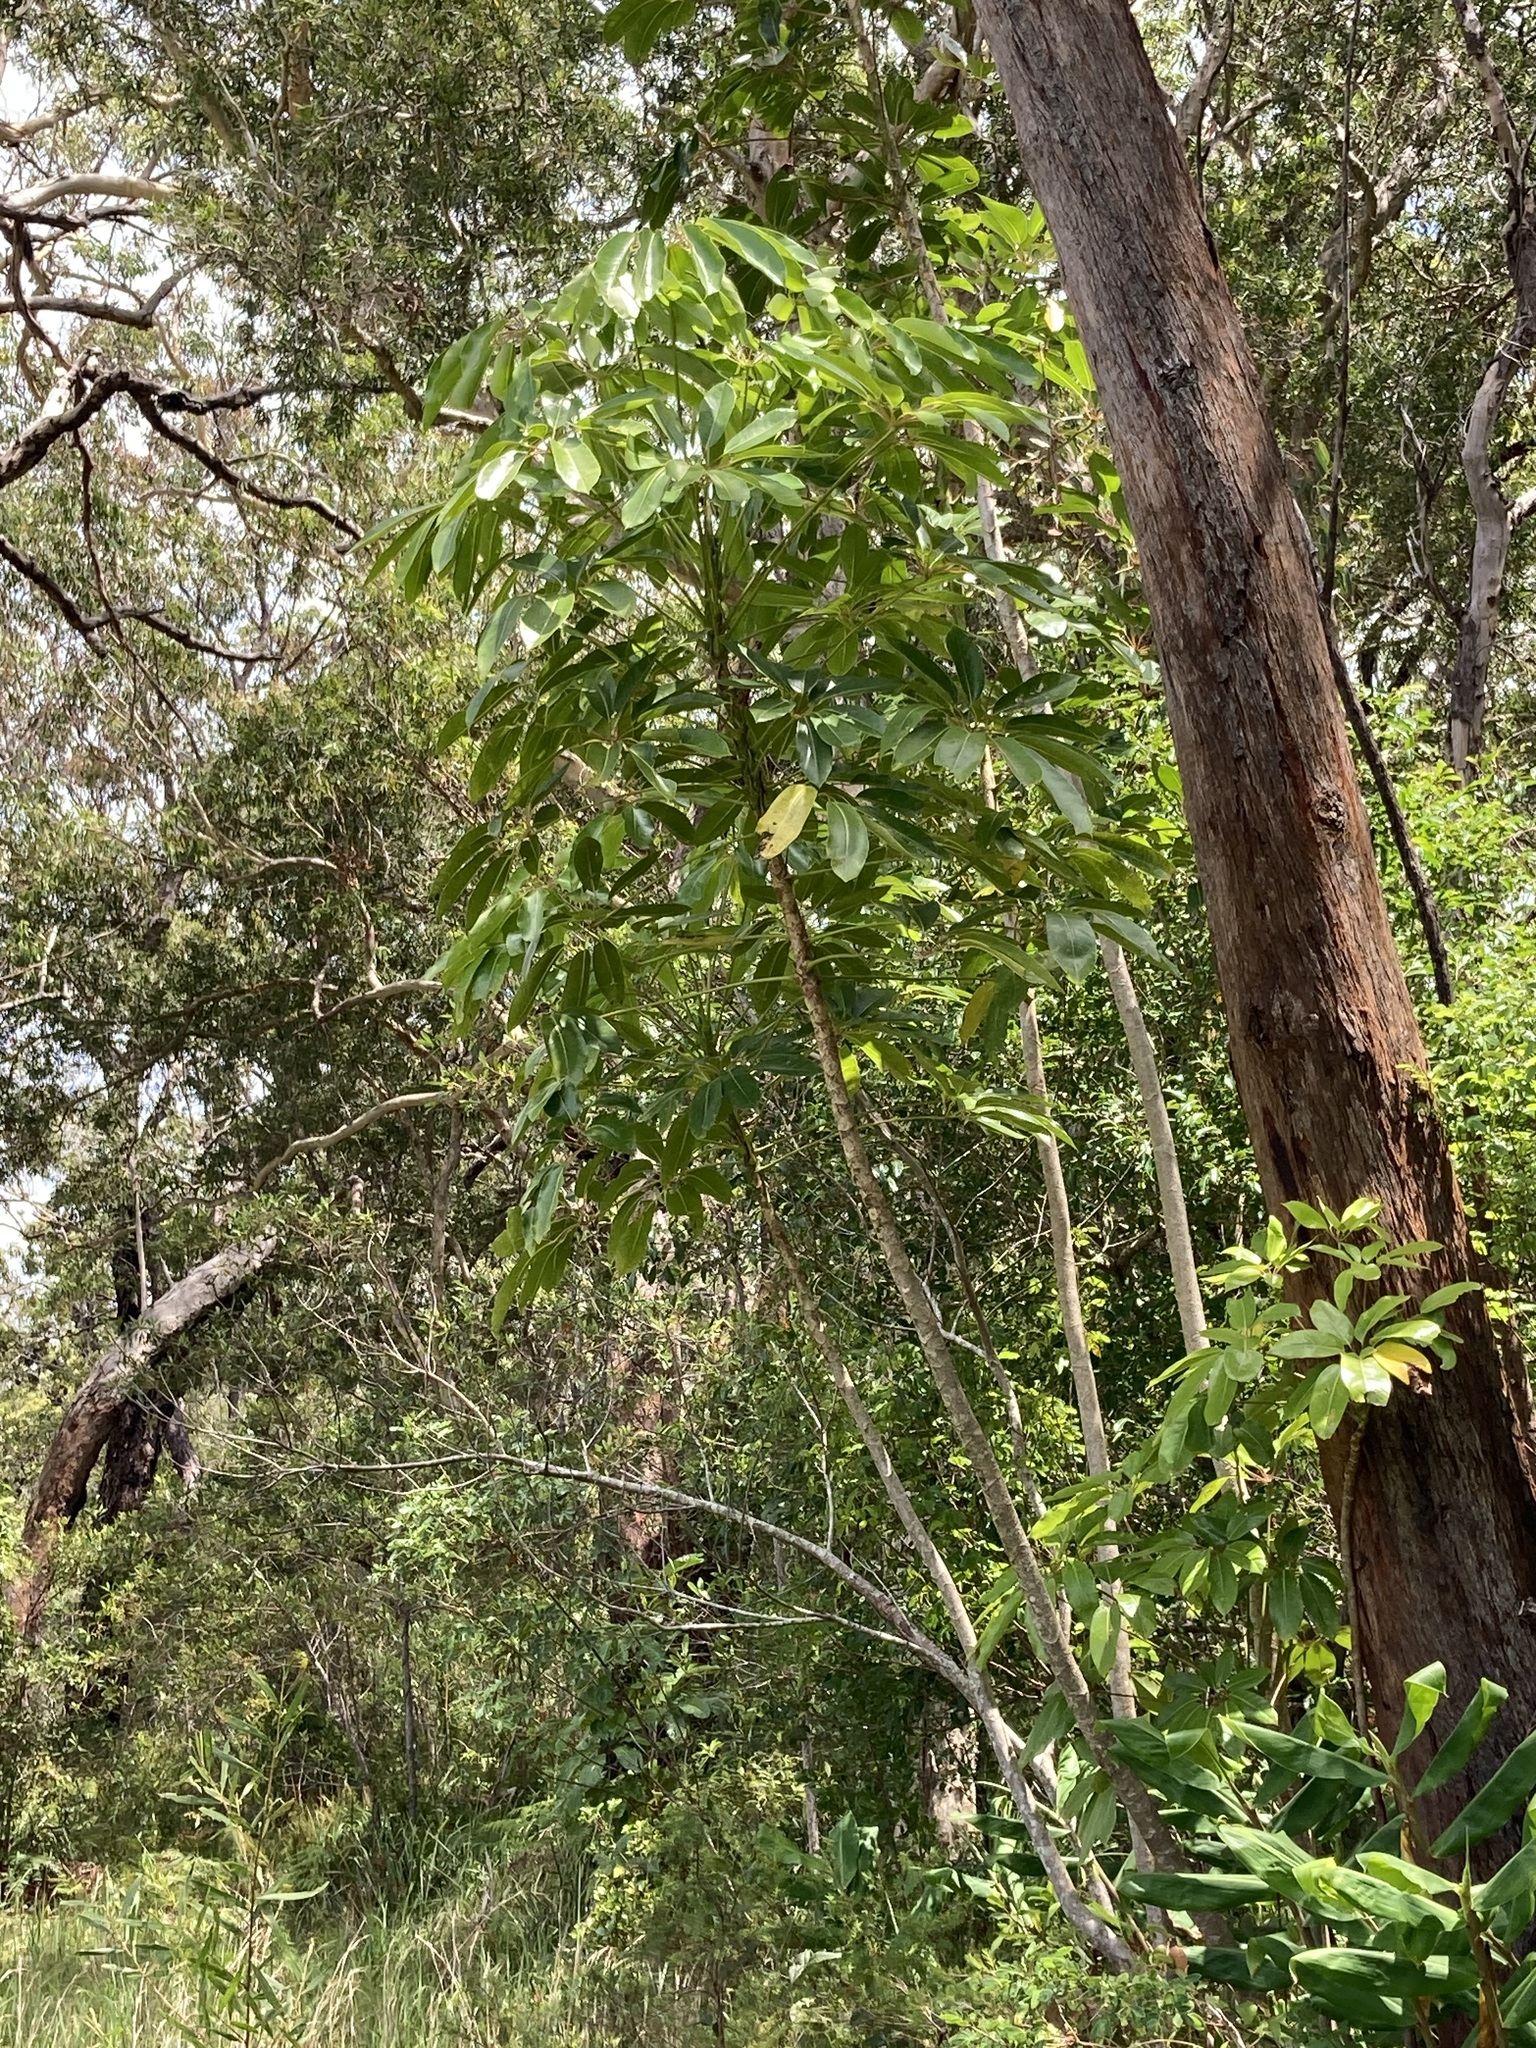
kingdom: Plantae
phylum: Tracheophyta
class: Magnoliopsida
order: Apiales
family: Araliaceae
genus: Heptapleurum
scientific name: Heptapleurum actinophyllum
